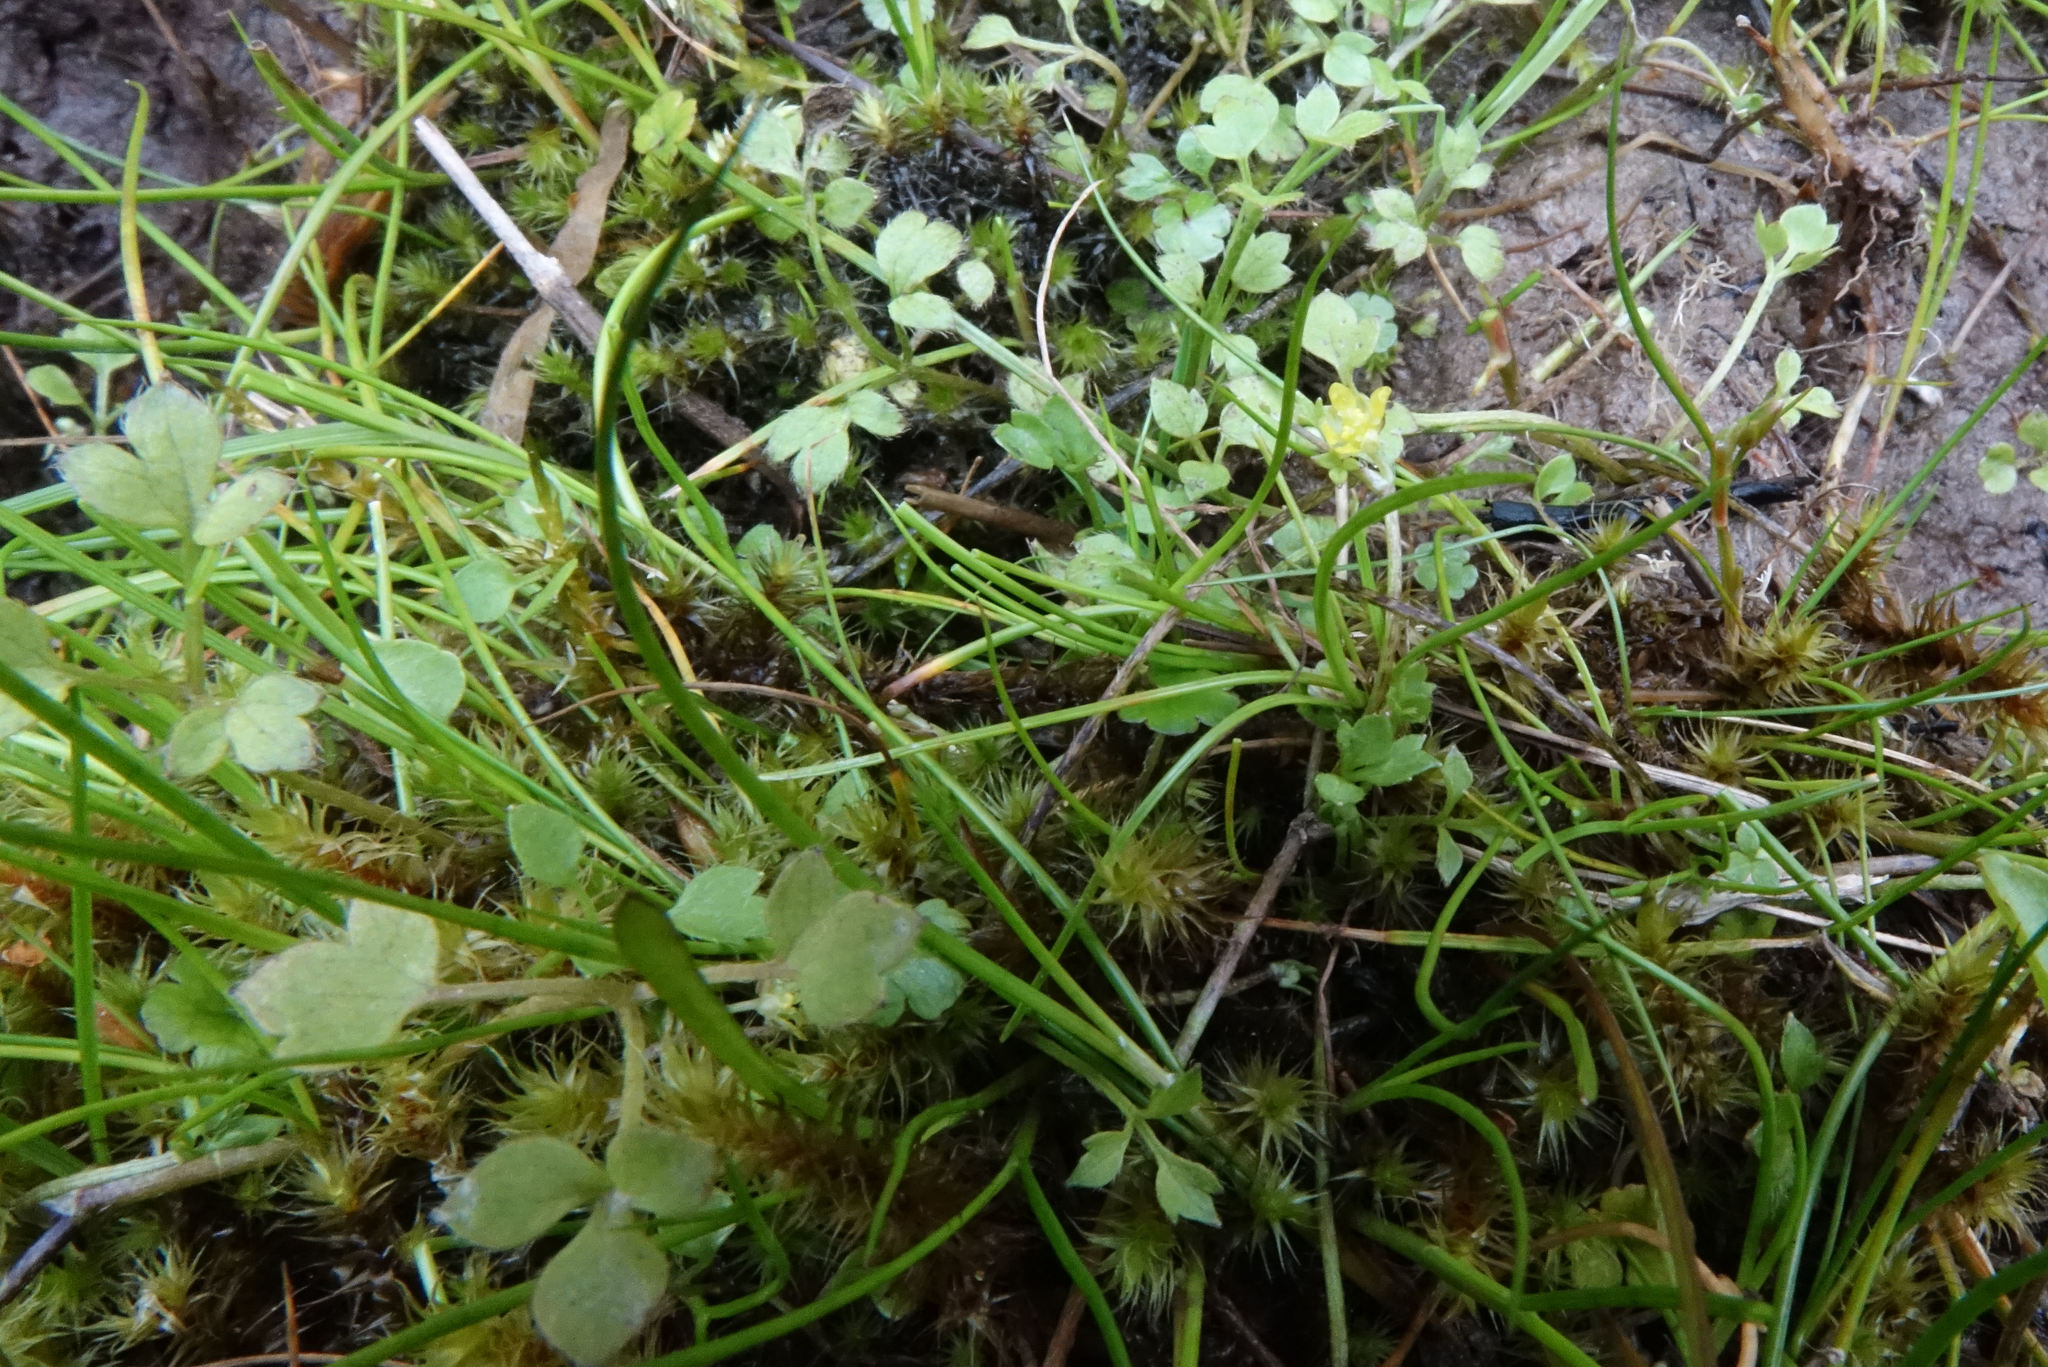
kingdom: Plantae
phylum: Tracheophyta
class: Magnoliopsida
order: Ranunculales
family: Ranunculaceae
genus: Ranunculus
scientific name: Ranunculus ternatifolius
